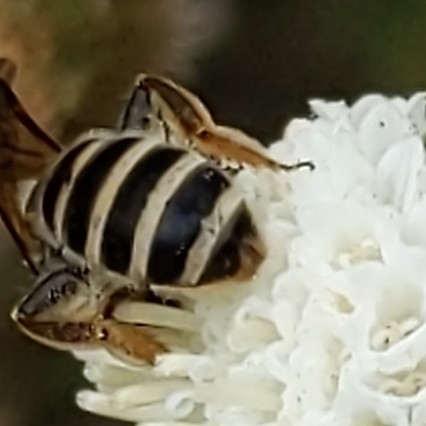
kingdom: Animalia
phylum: Arthropoda
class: Insecta
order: Hymenoptera
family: Halictidae
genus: Halictus
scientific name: Halictus farinosus
